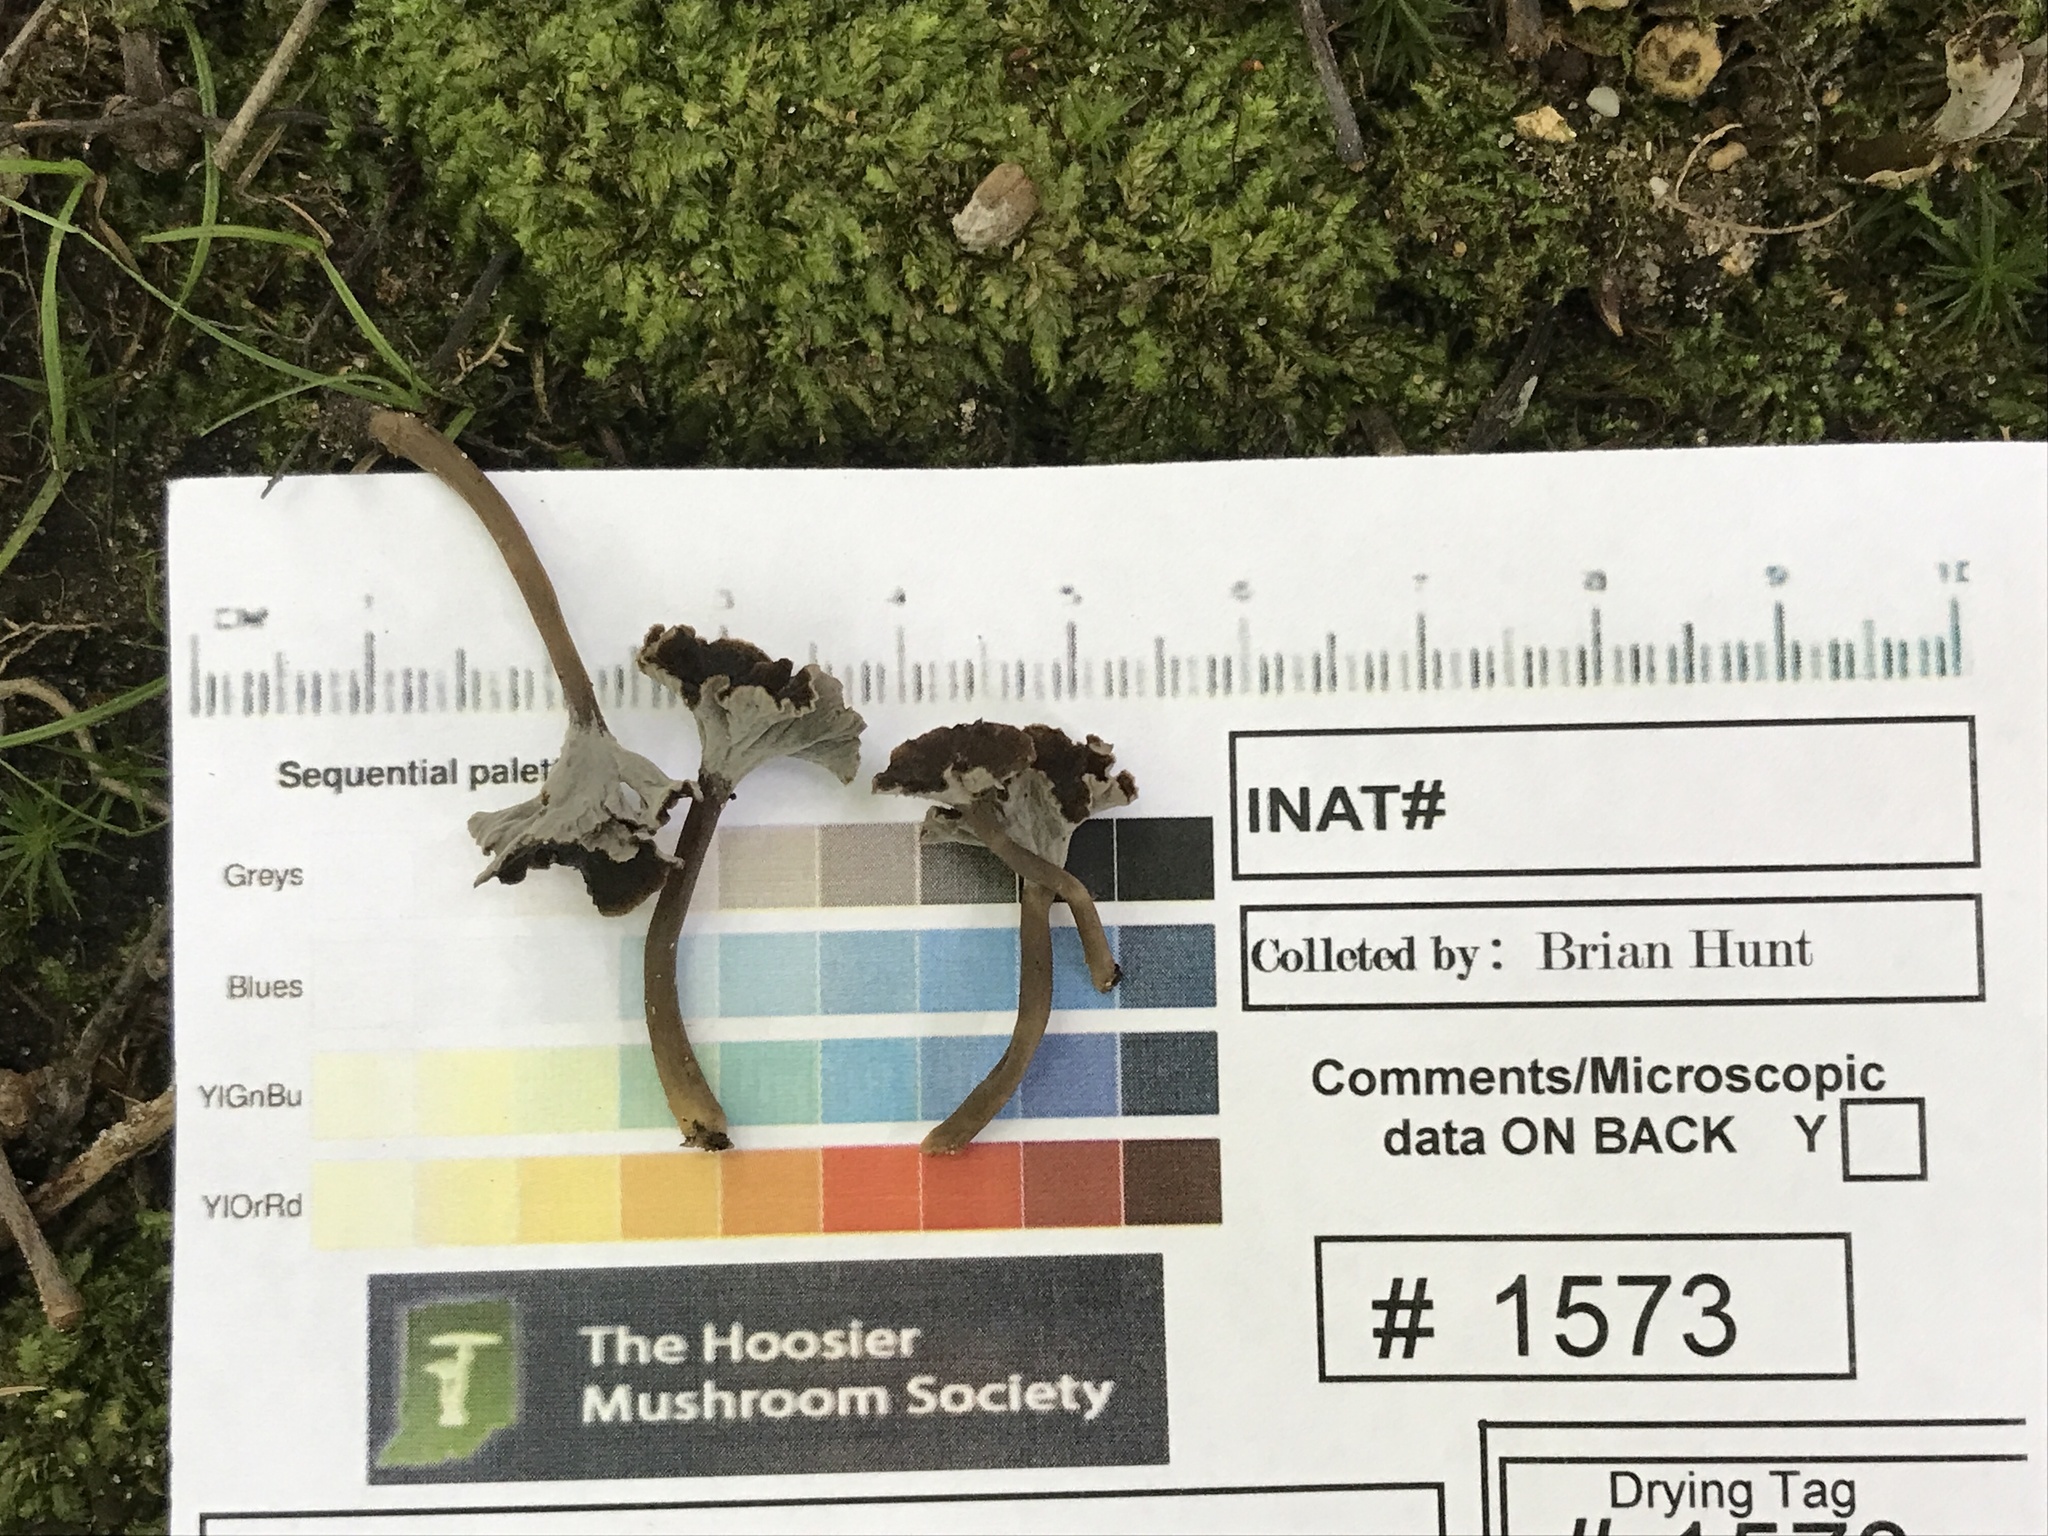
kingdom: Fungi
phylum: Basidiomycota
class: Agaricomycetes
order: Cantharellales
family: Hydnaceae
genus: Pseudocraterellus
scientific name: Pseudocraterellus calyculus
